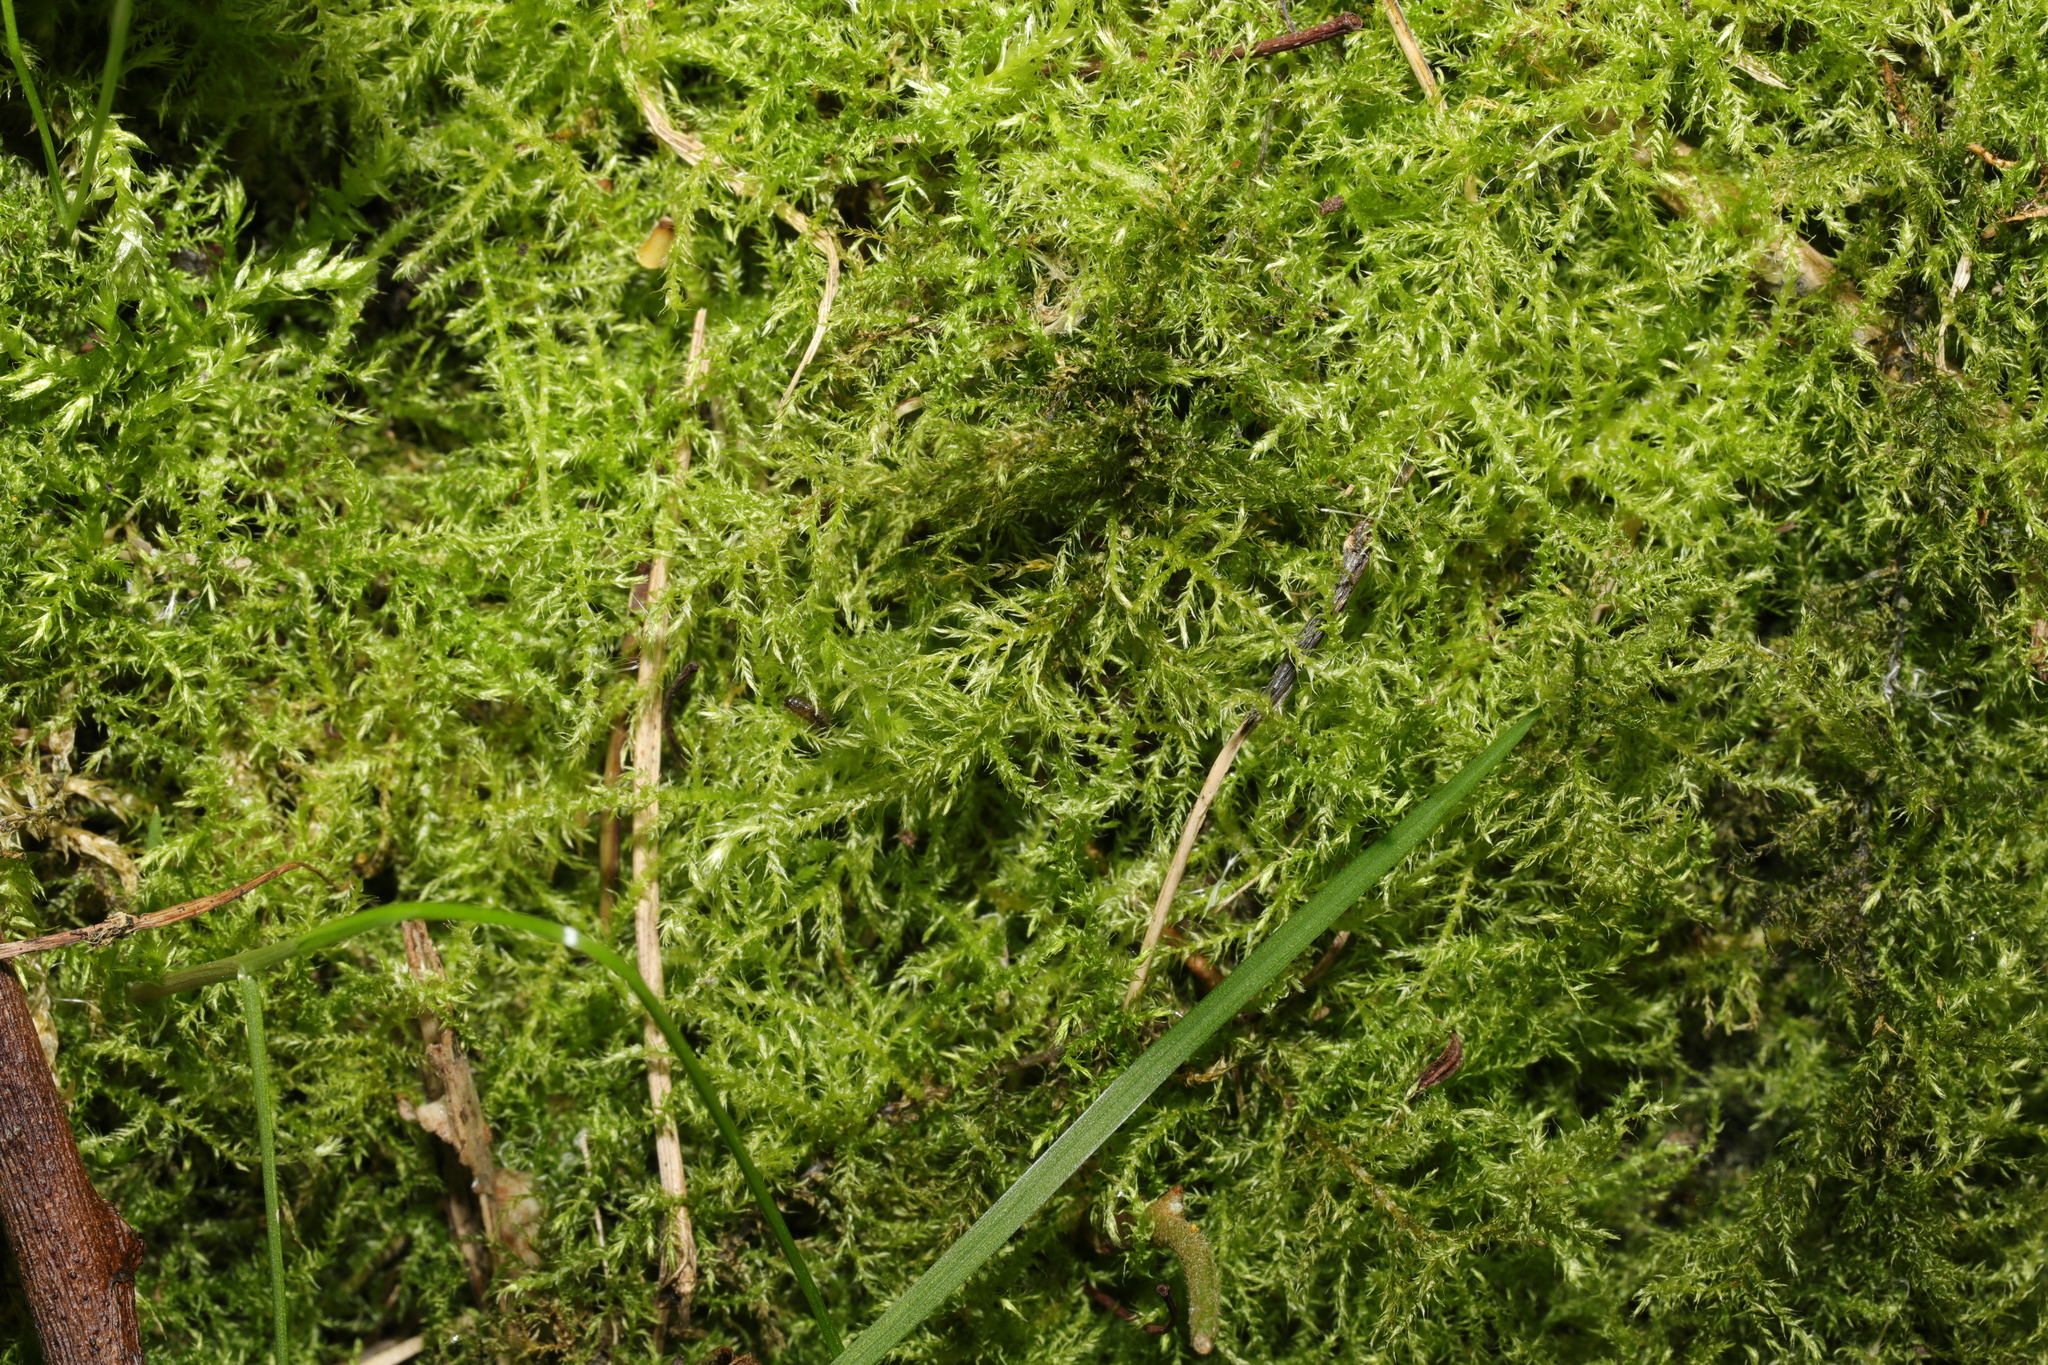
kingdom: Plantae
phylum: Bryophyta
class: Bryopsida
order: Hypnales
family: Brachytheciaceae
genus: Kindbergia
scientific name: Kindbergia praelonga
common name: Slender beaked moss
